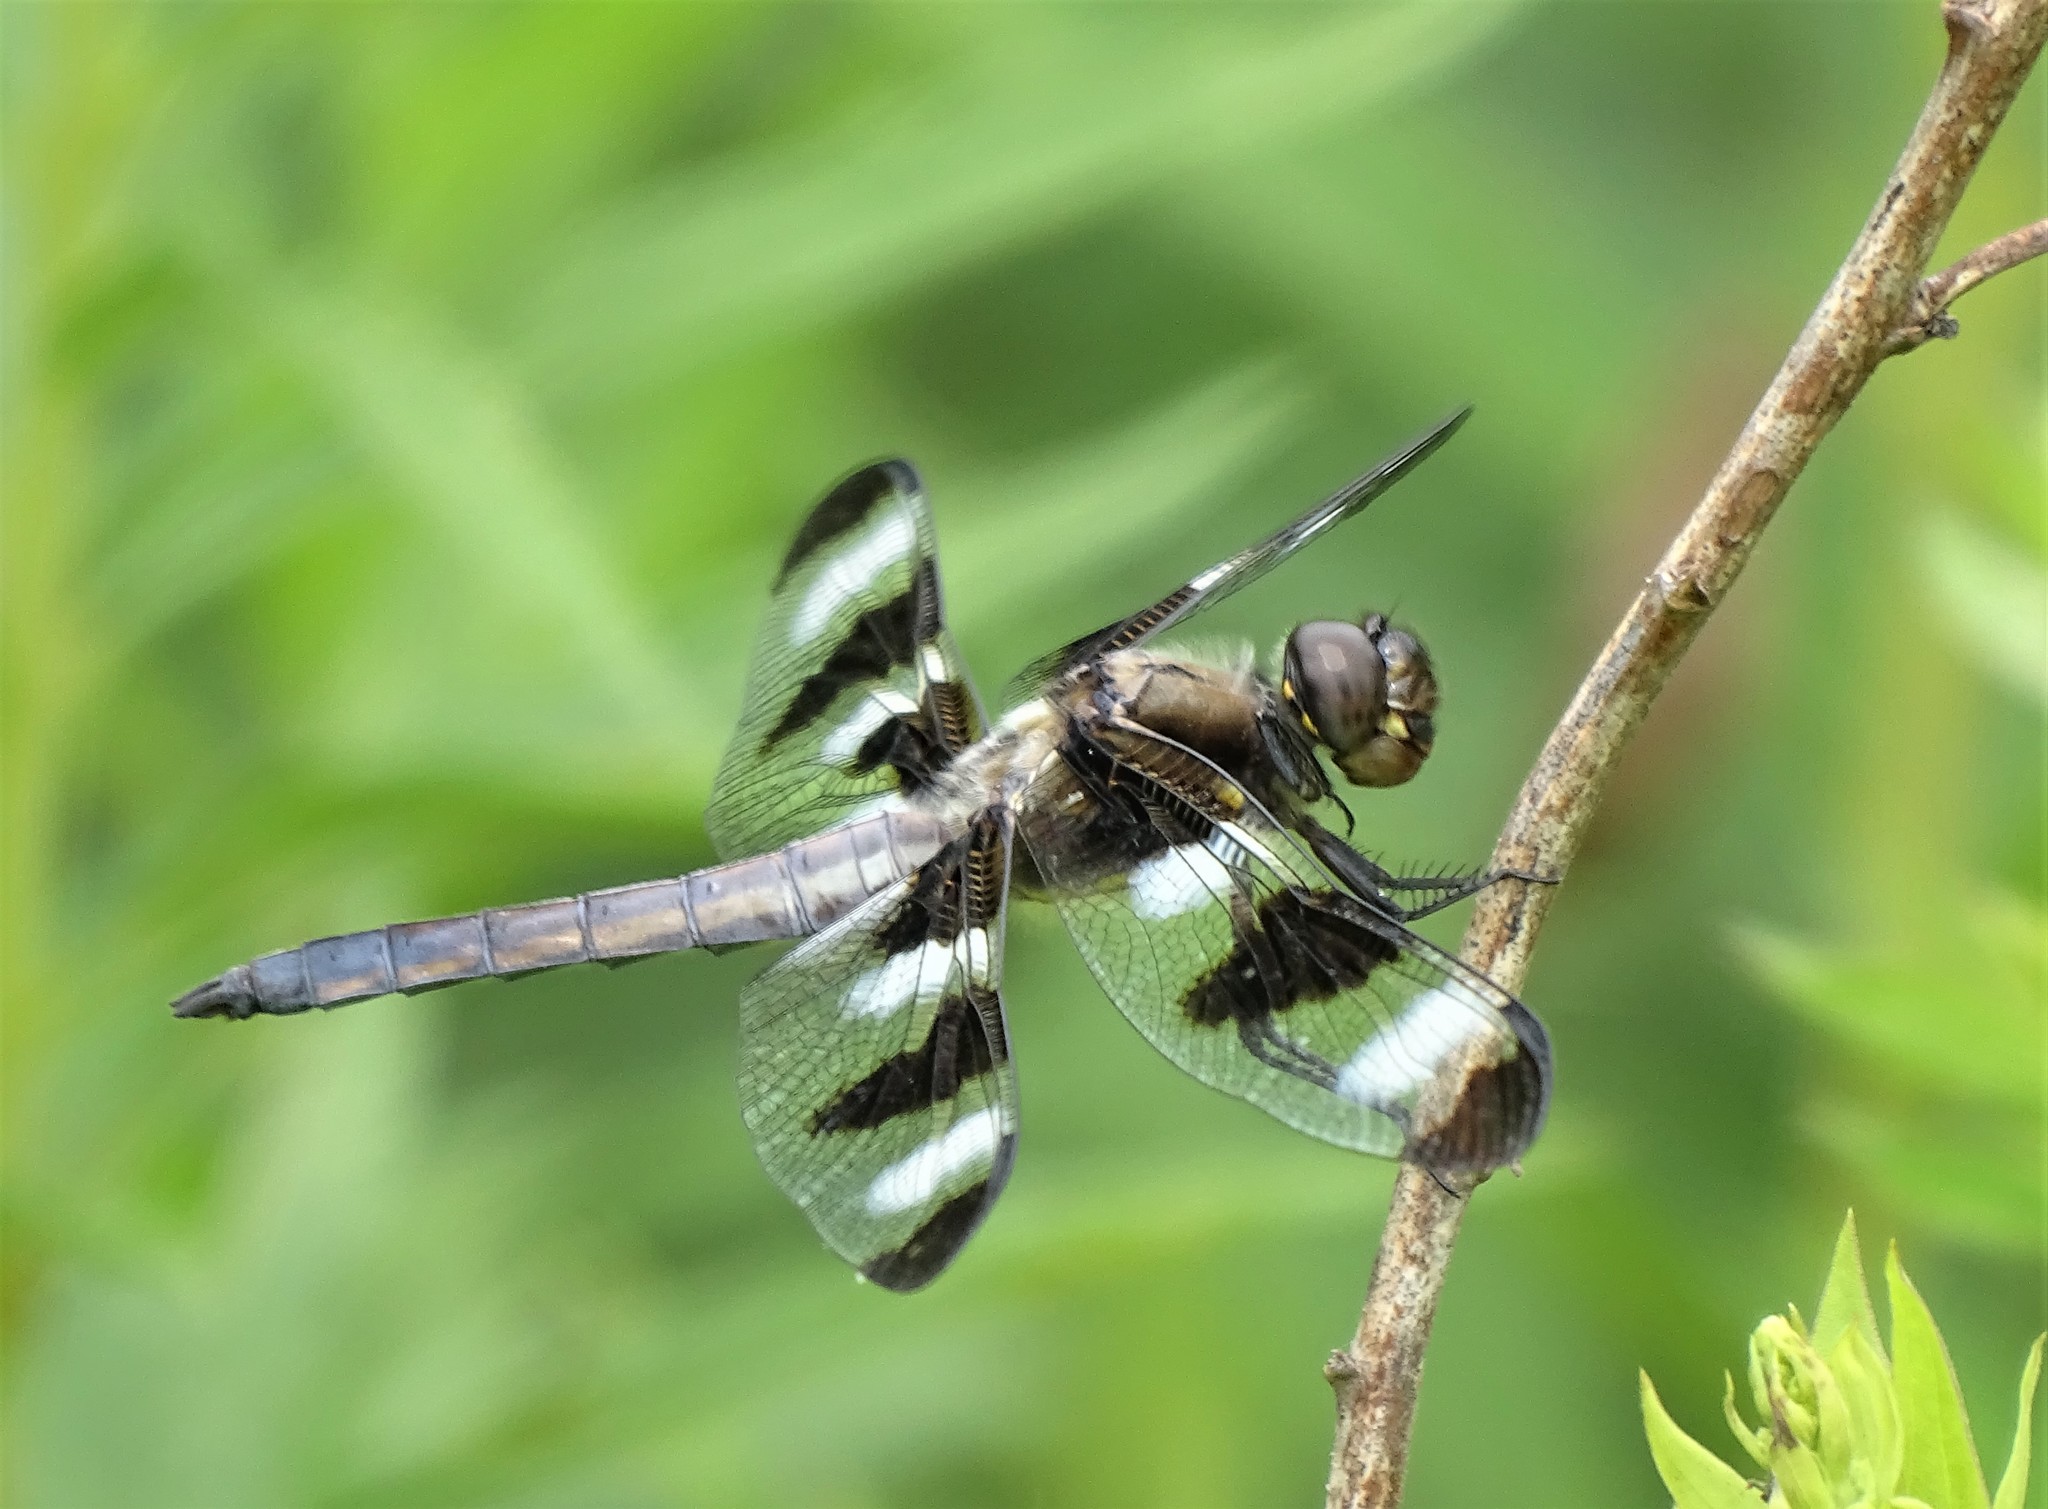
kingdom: Animalia
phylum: Arthropoda
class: Insecta
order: Odonata
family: Libellulidae
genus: Libellula
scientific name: Libellula pulchella
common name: Twelve-spotted skimmer
